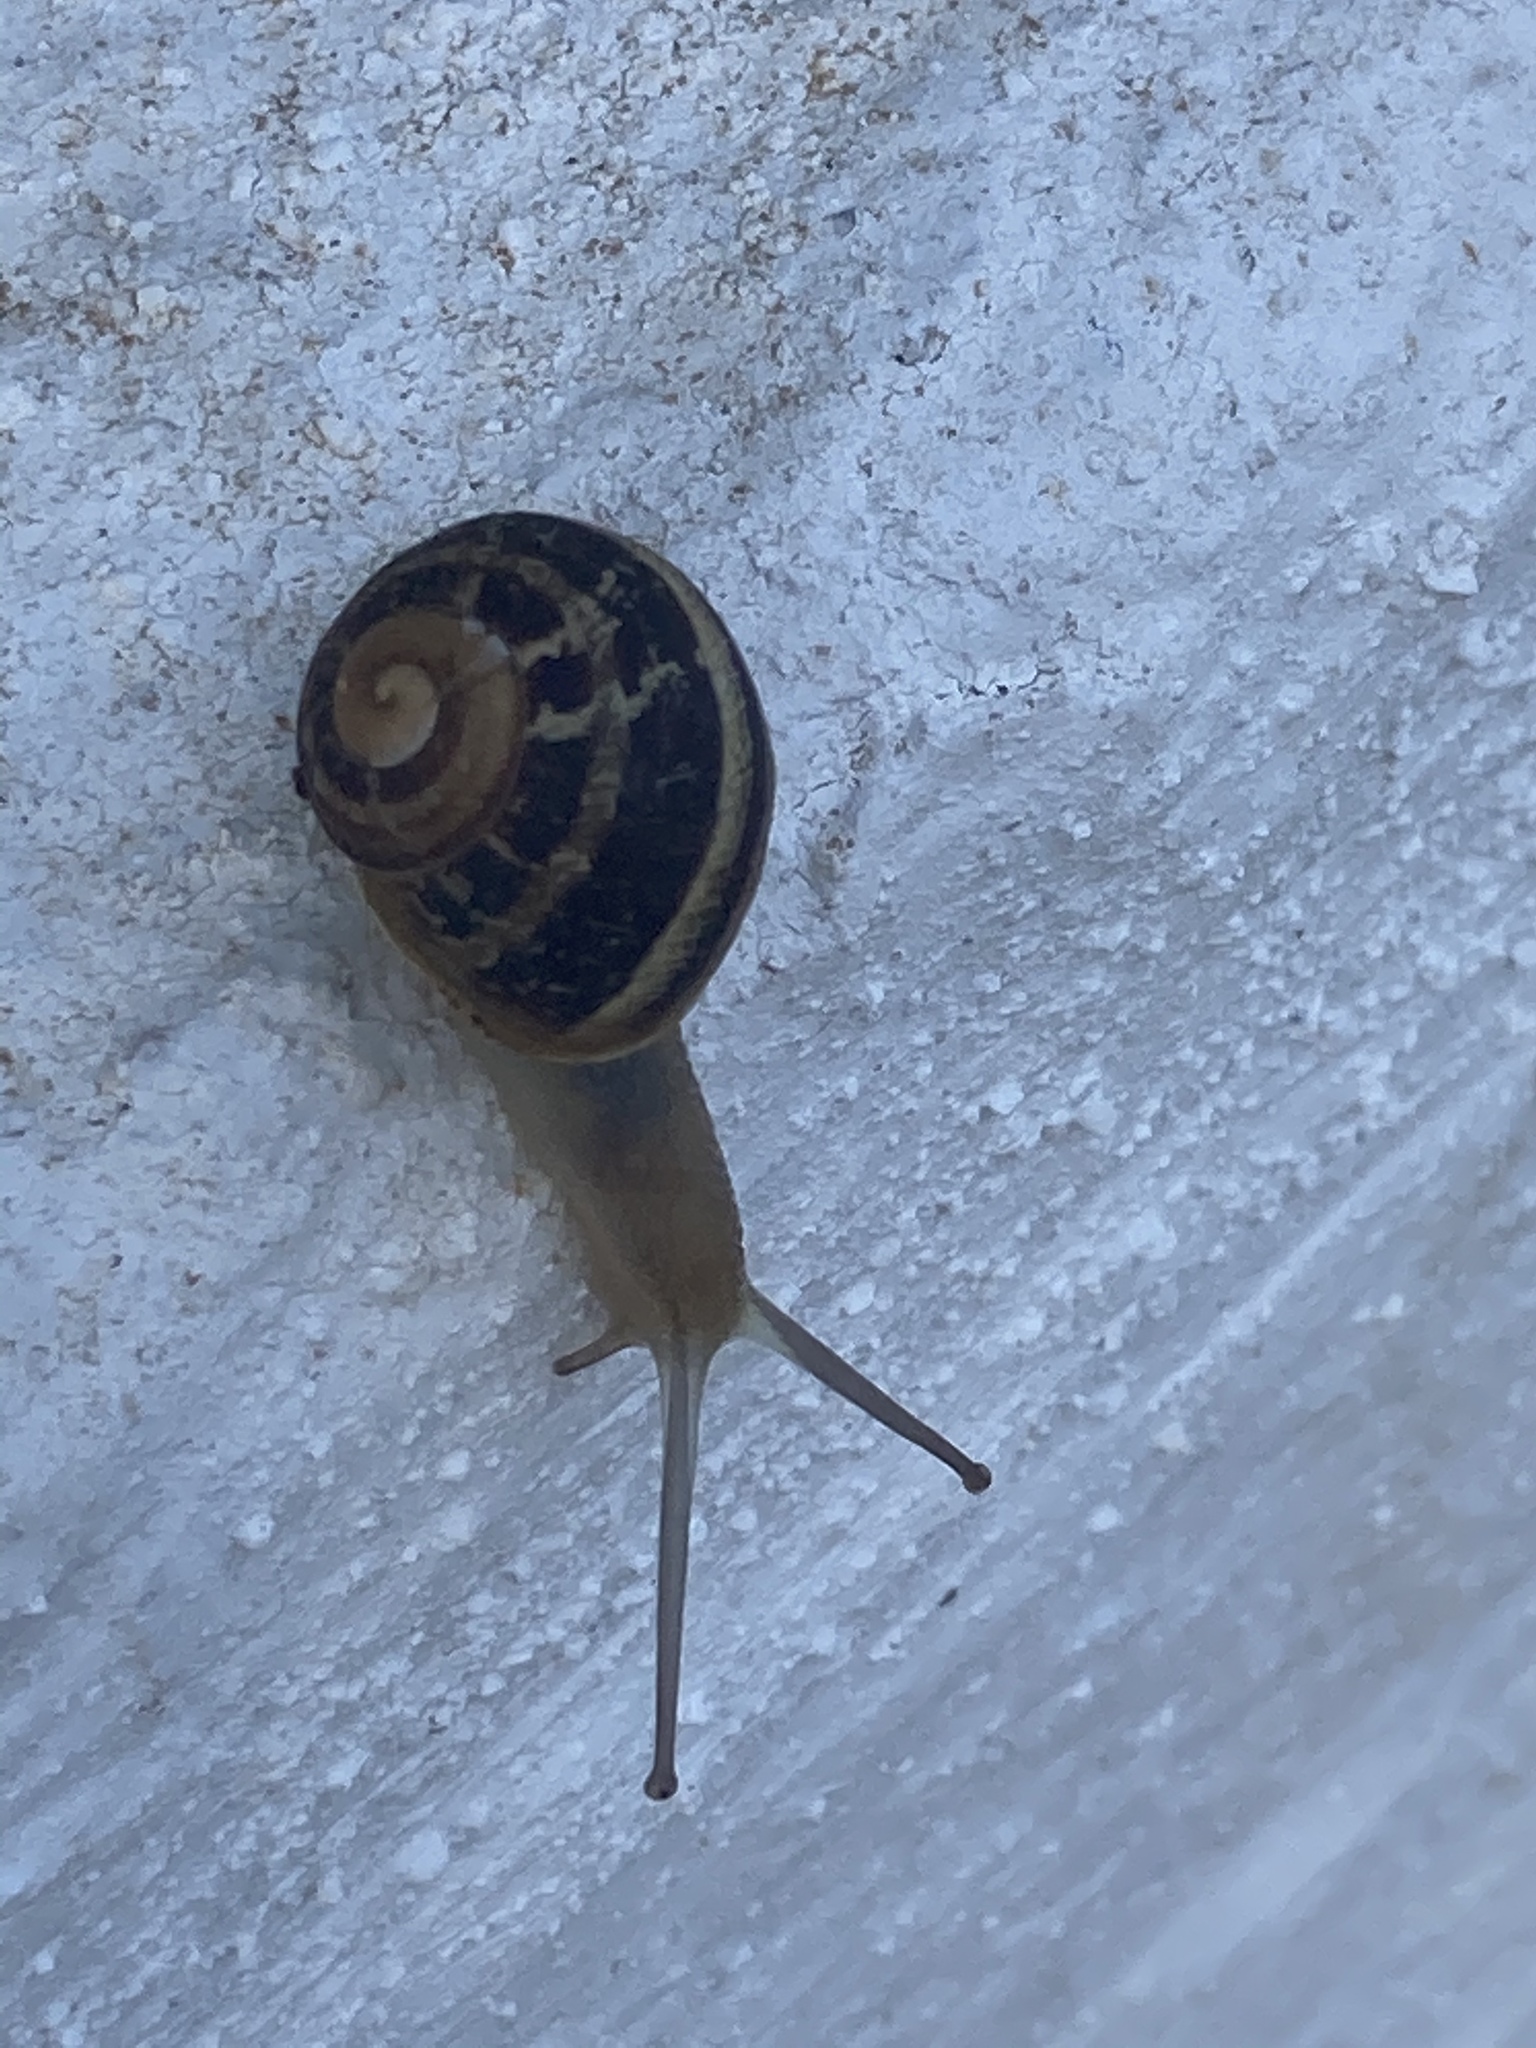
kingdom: Animalia
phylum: Mollusca
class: Gastropoda
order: Stylommatophora
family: Helicidae
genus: Cornu
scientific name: Cornu aspersum
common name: Brown garden snail
